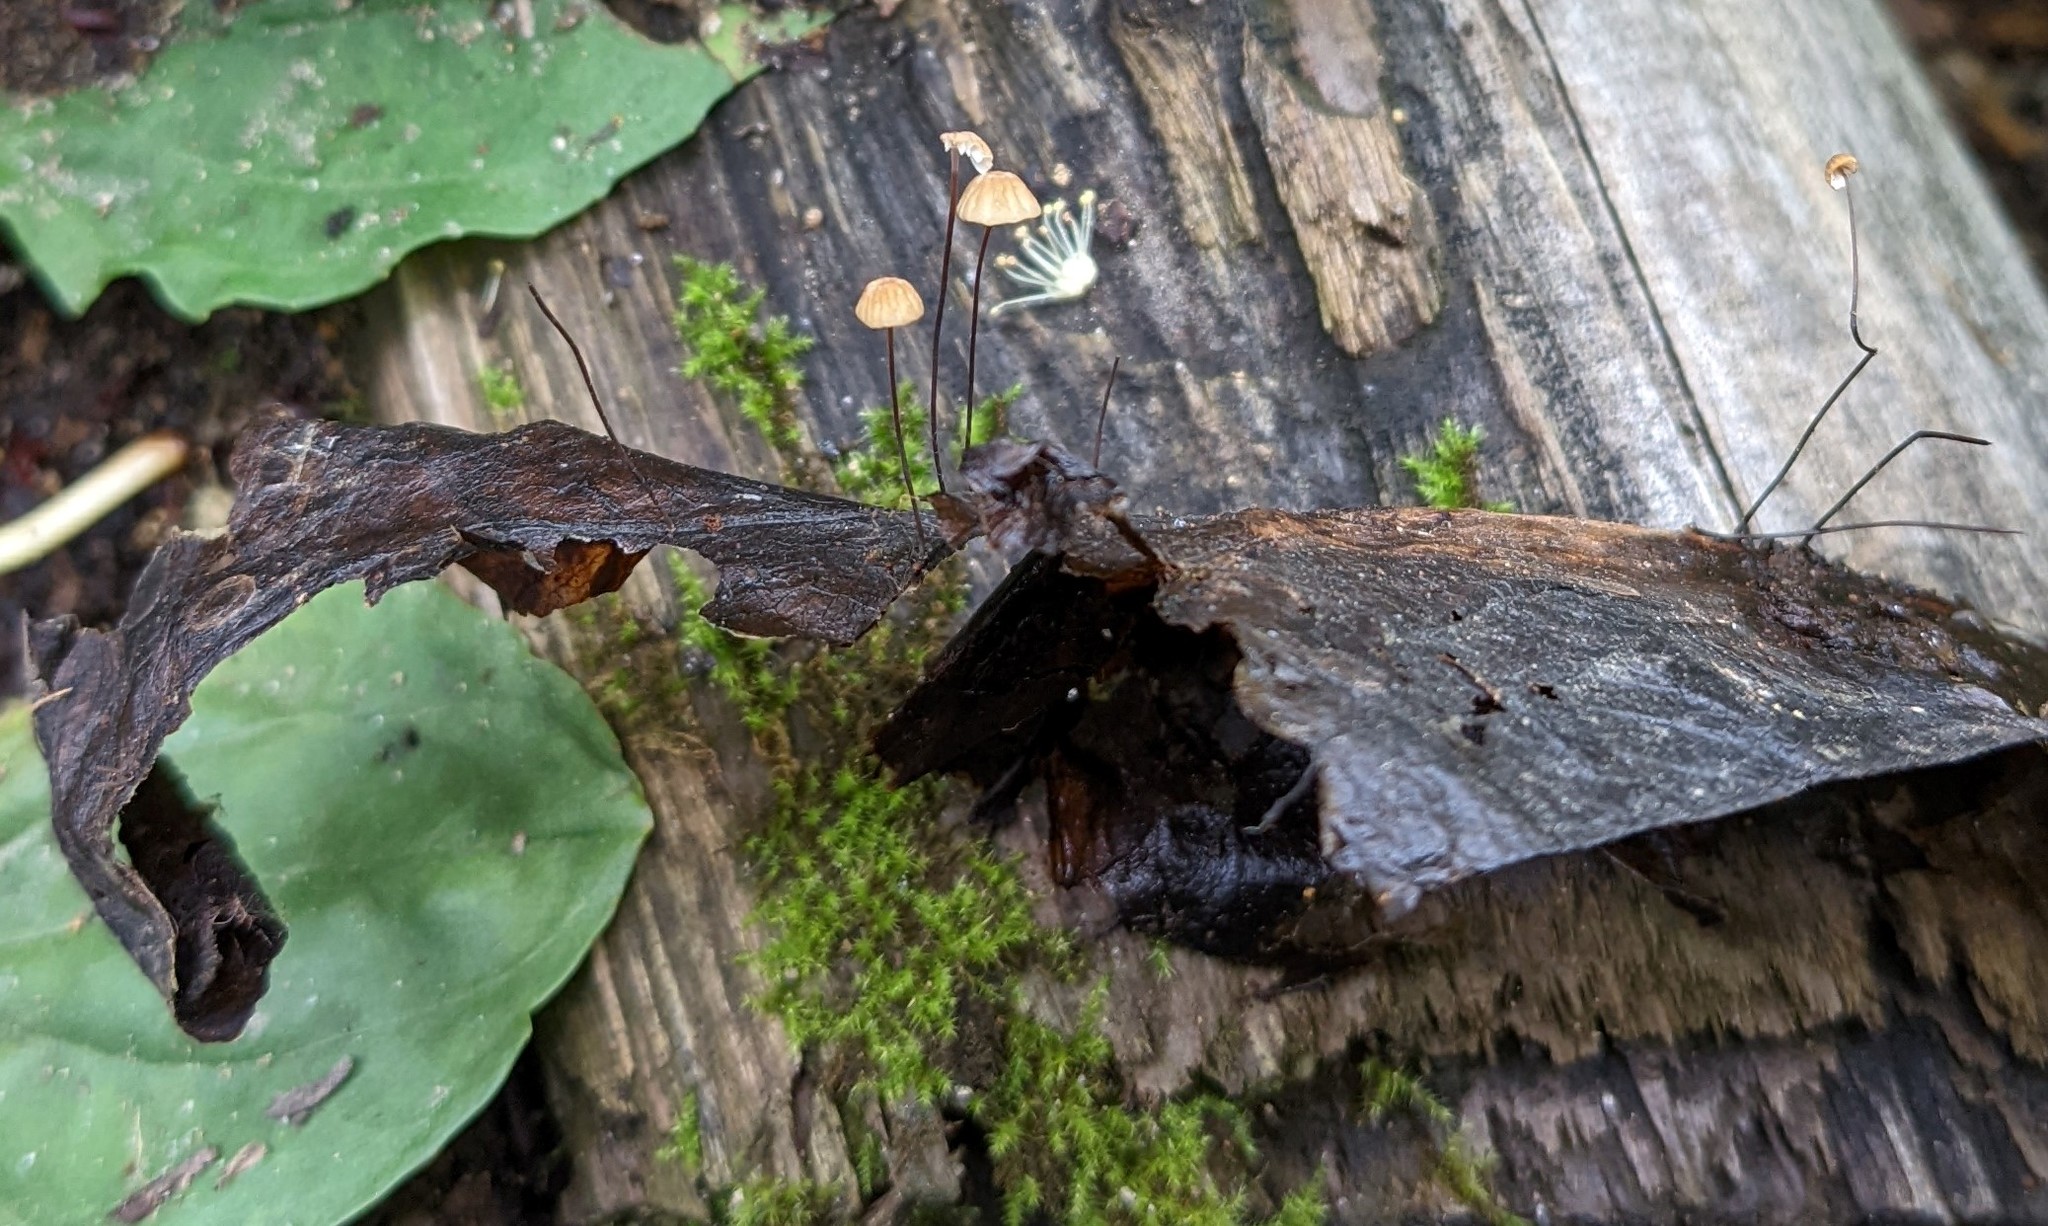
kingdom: Fungi
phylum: Basidiomycota
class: Agaricomycetes
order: Agaricales
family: Physalacriaceae
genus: Cryptomarasmius
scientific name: Cryptomarasmius aucubae
